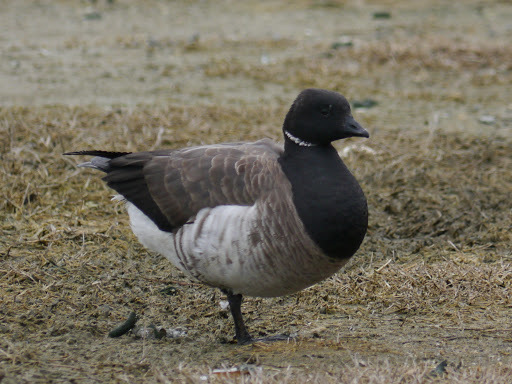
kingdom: Animalia
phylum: Chordata
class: Aves
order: Anseriformes
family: Anatidae
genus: Branta
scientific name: Branta bernicla
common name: Brant goose
